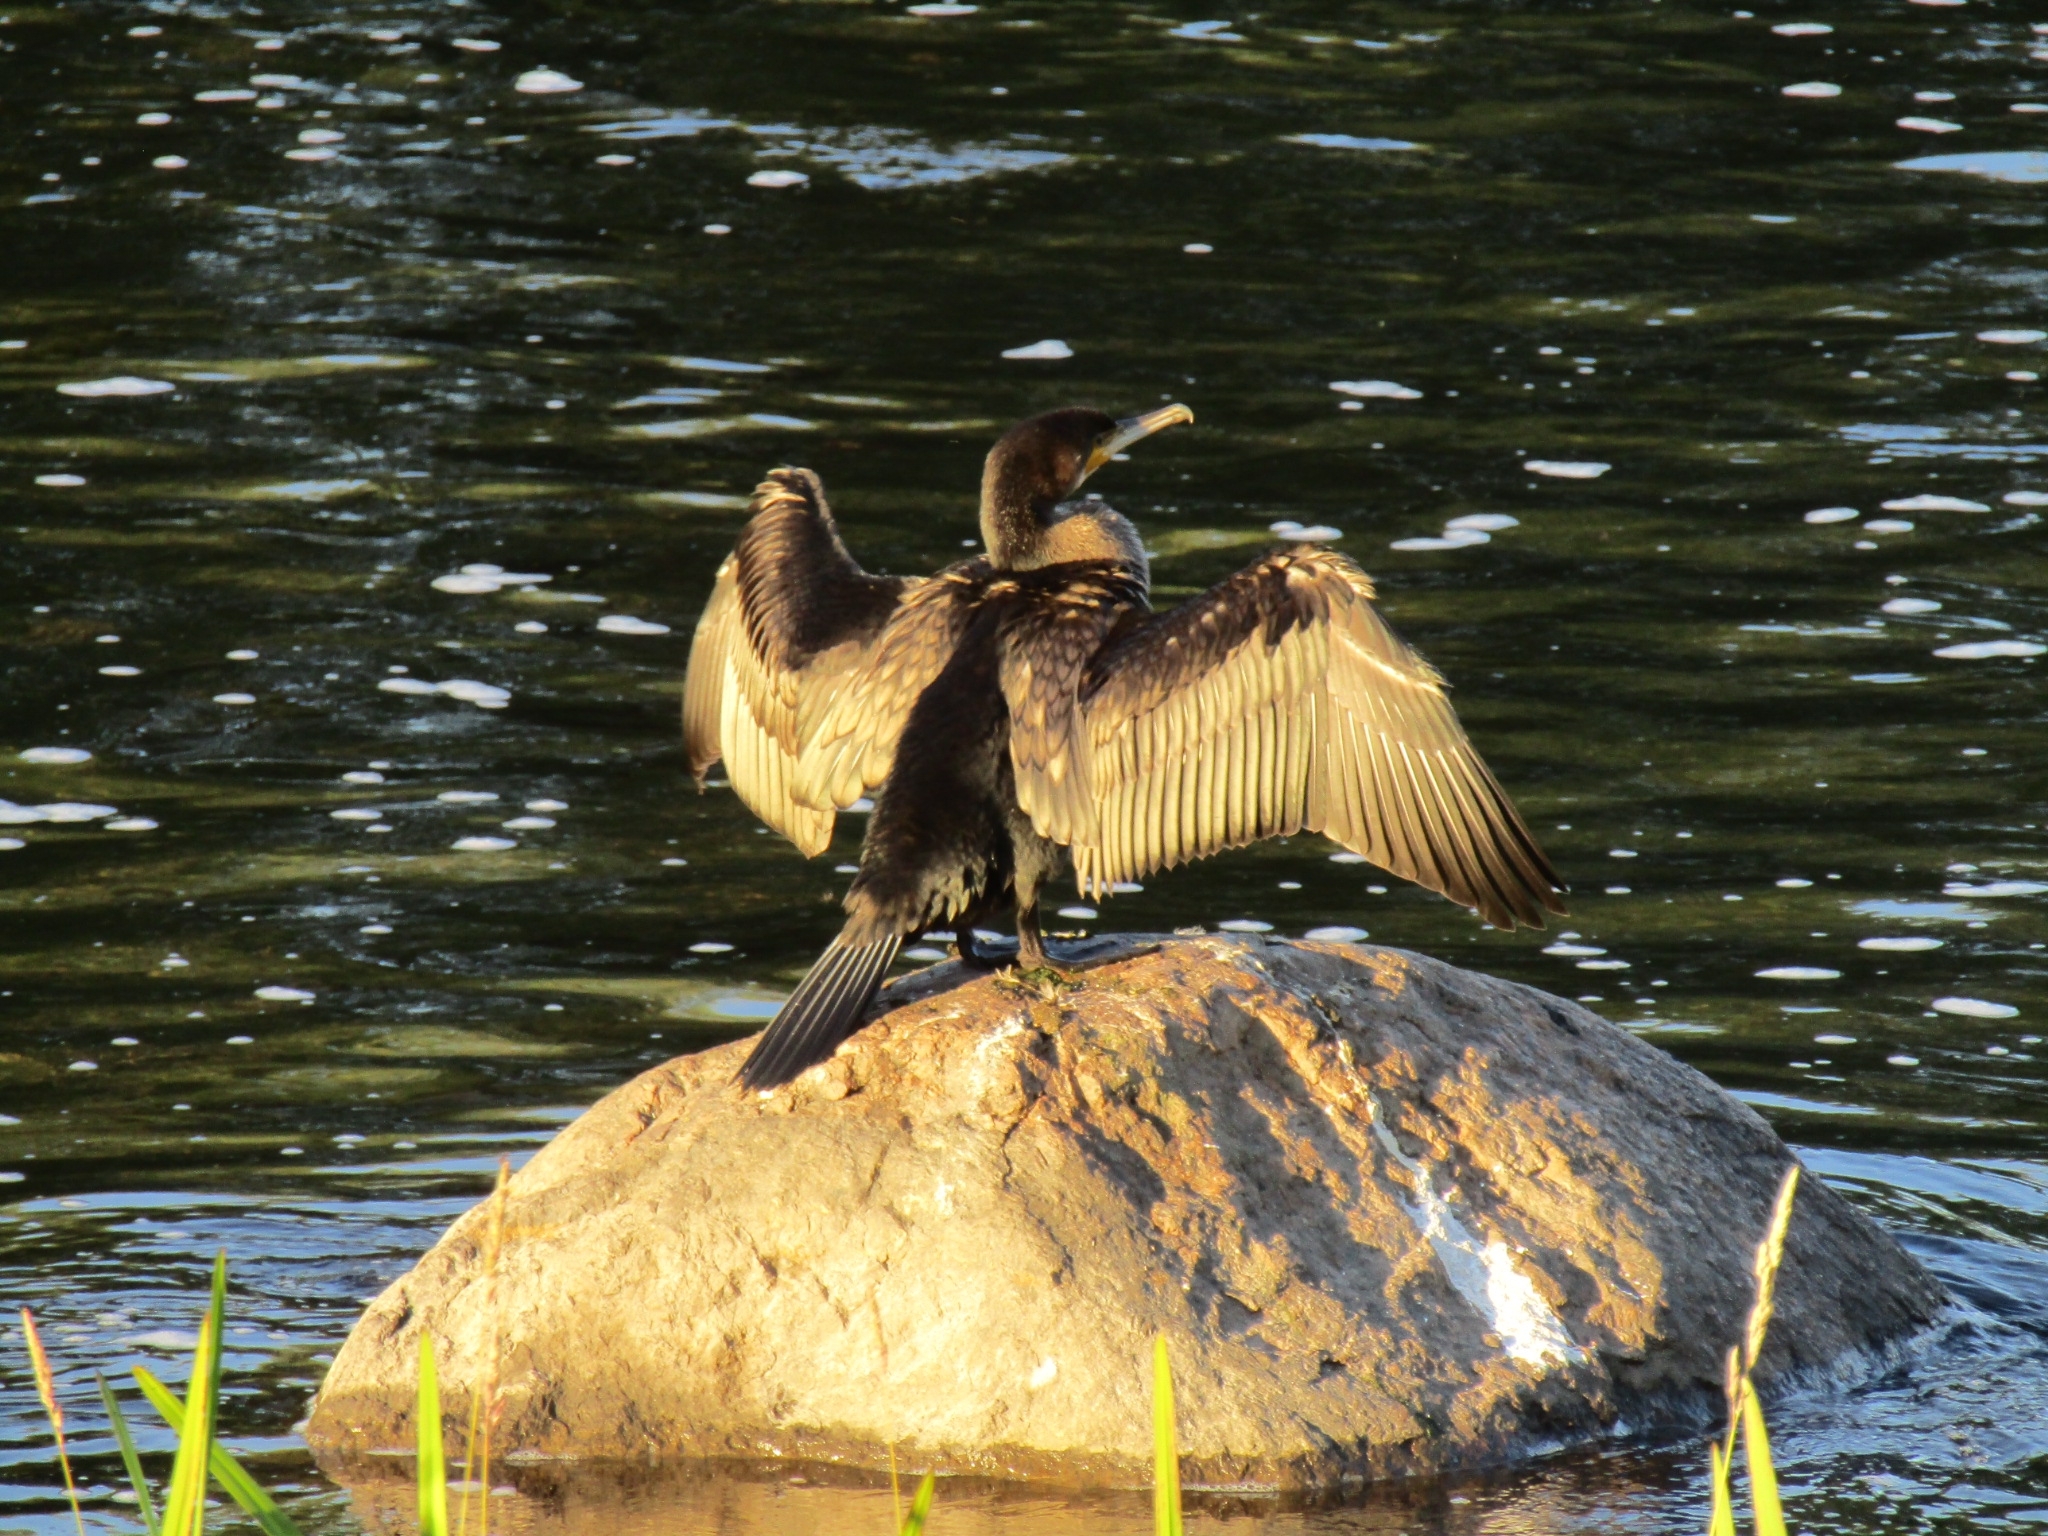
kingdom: Animalia
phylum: Chordata
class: Aves
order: Suliformes
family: Phalacrocoracidae
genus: Phalacrocorax
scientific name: Phalacrocorax carbo
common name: Great cormorant
